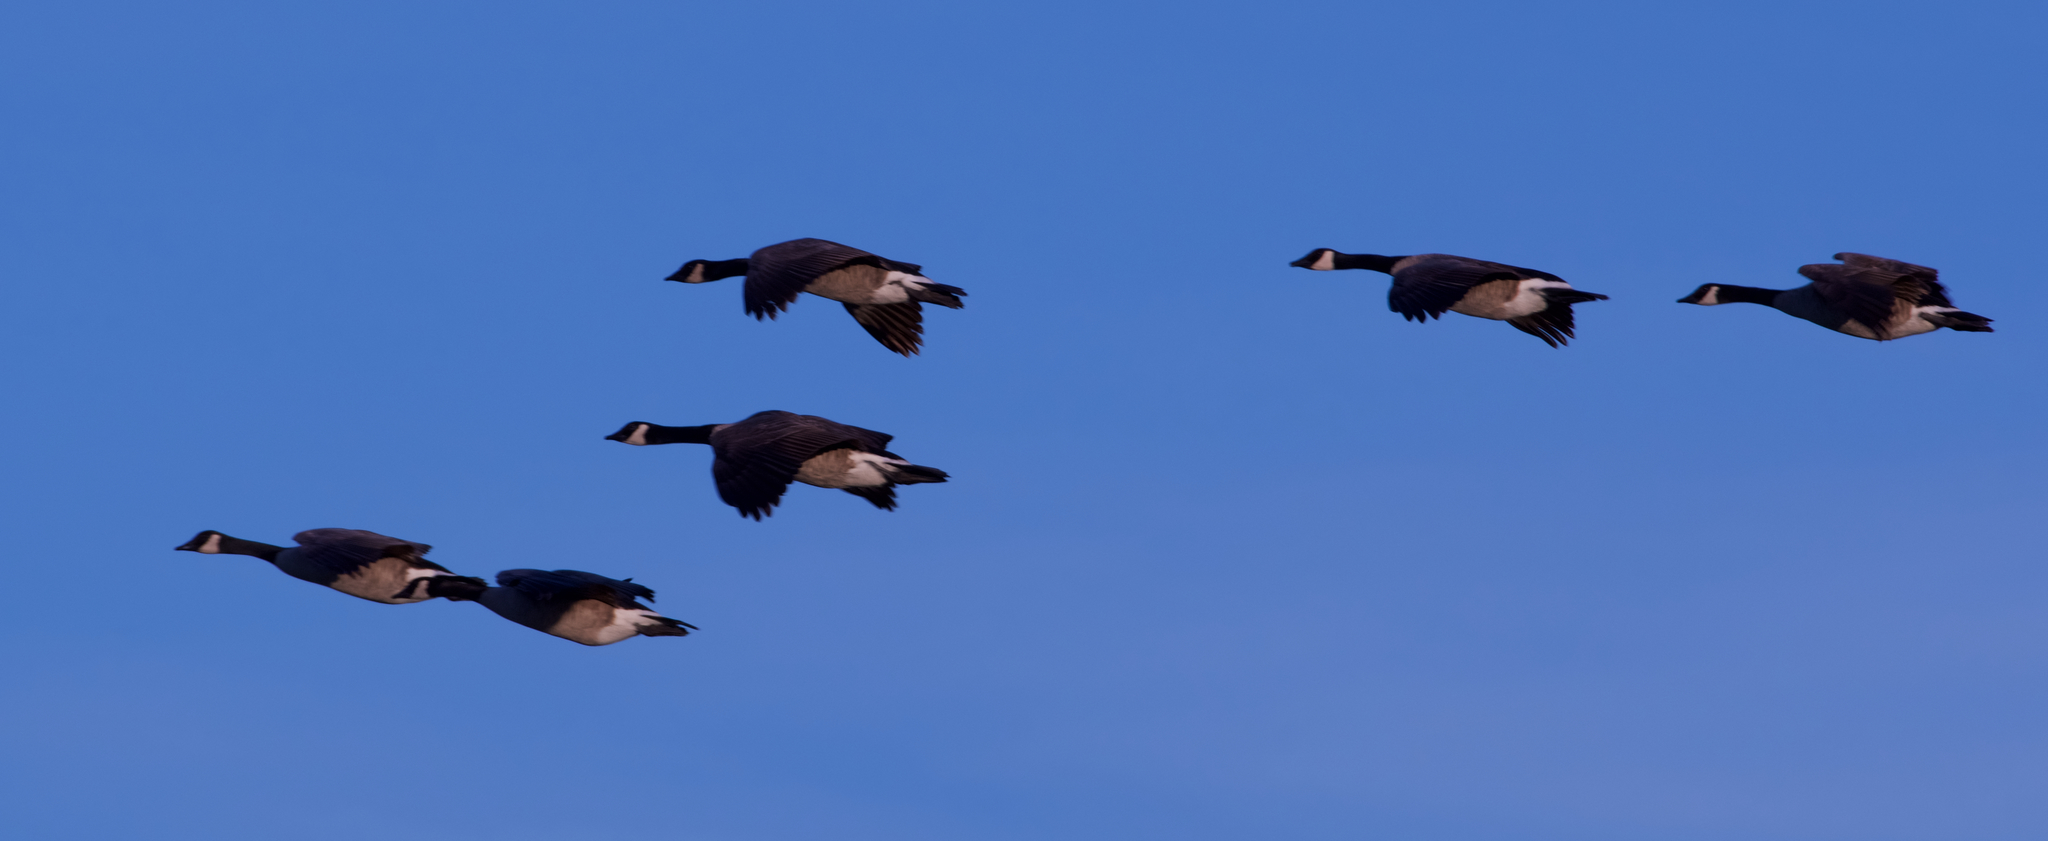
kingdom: Animalia
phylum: Chordata
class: Aves
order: Anseriformes
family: Anatidae
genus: Branta
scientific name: Branta canadensis
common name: Canada goose
